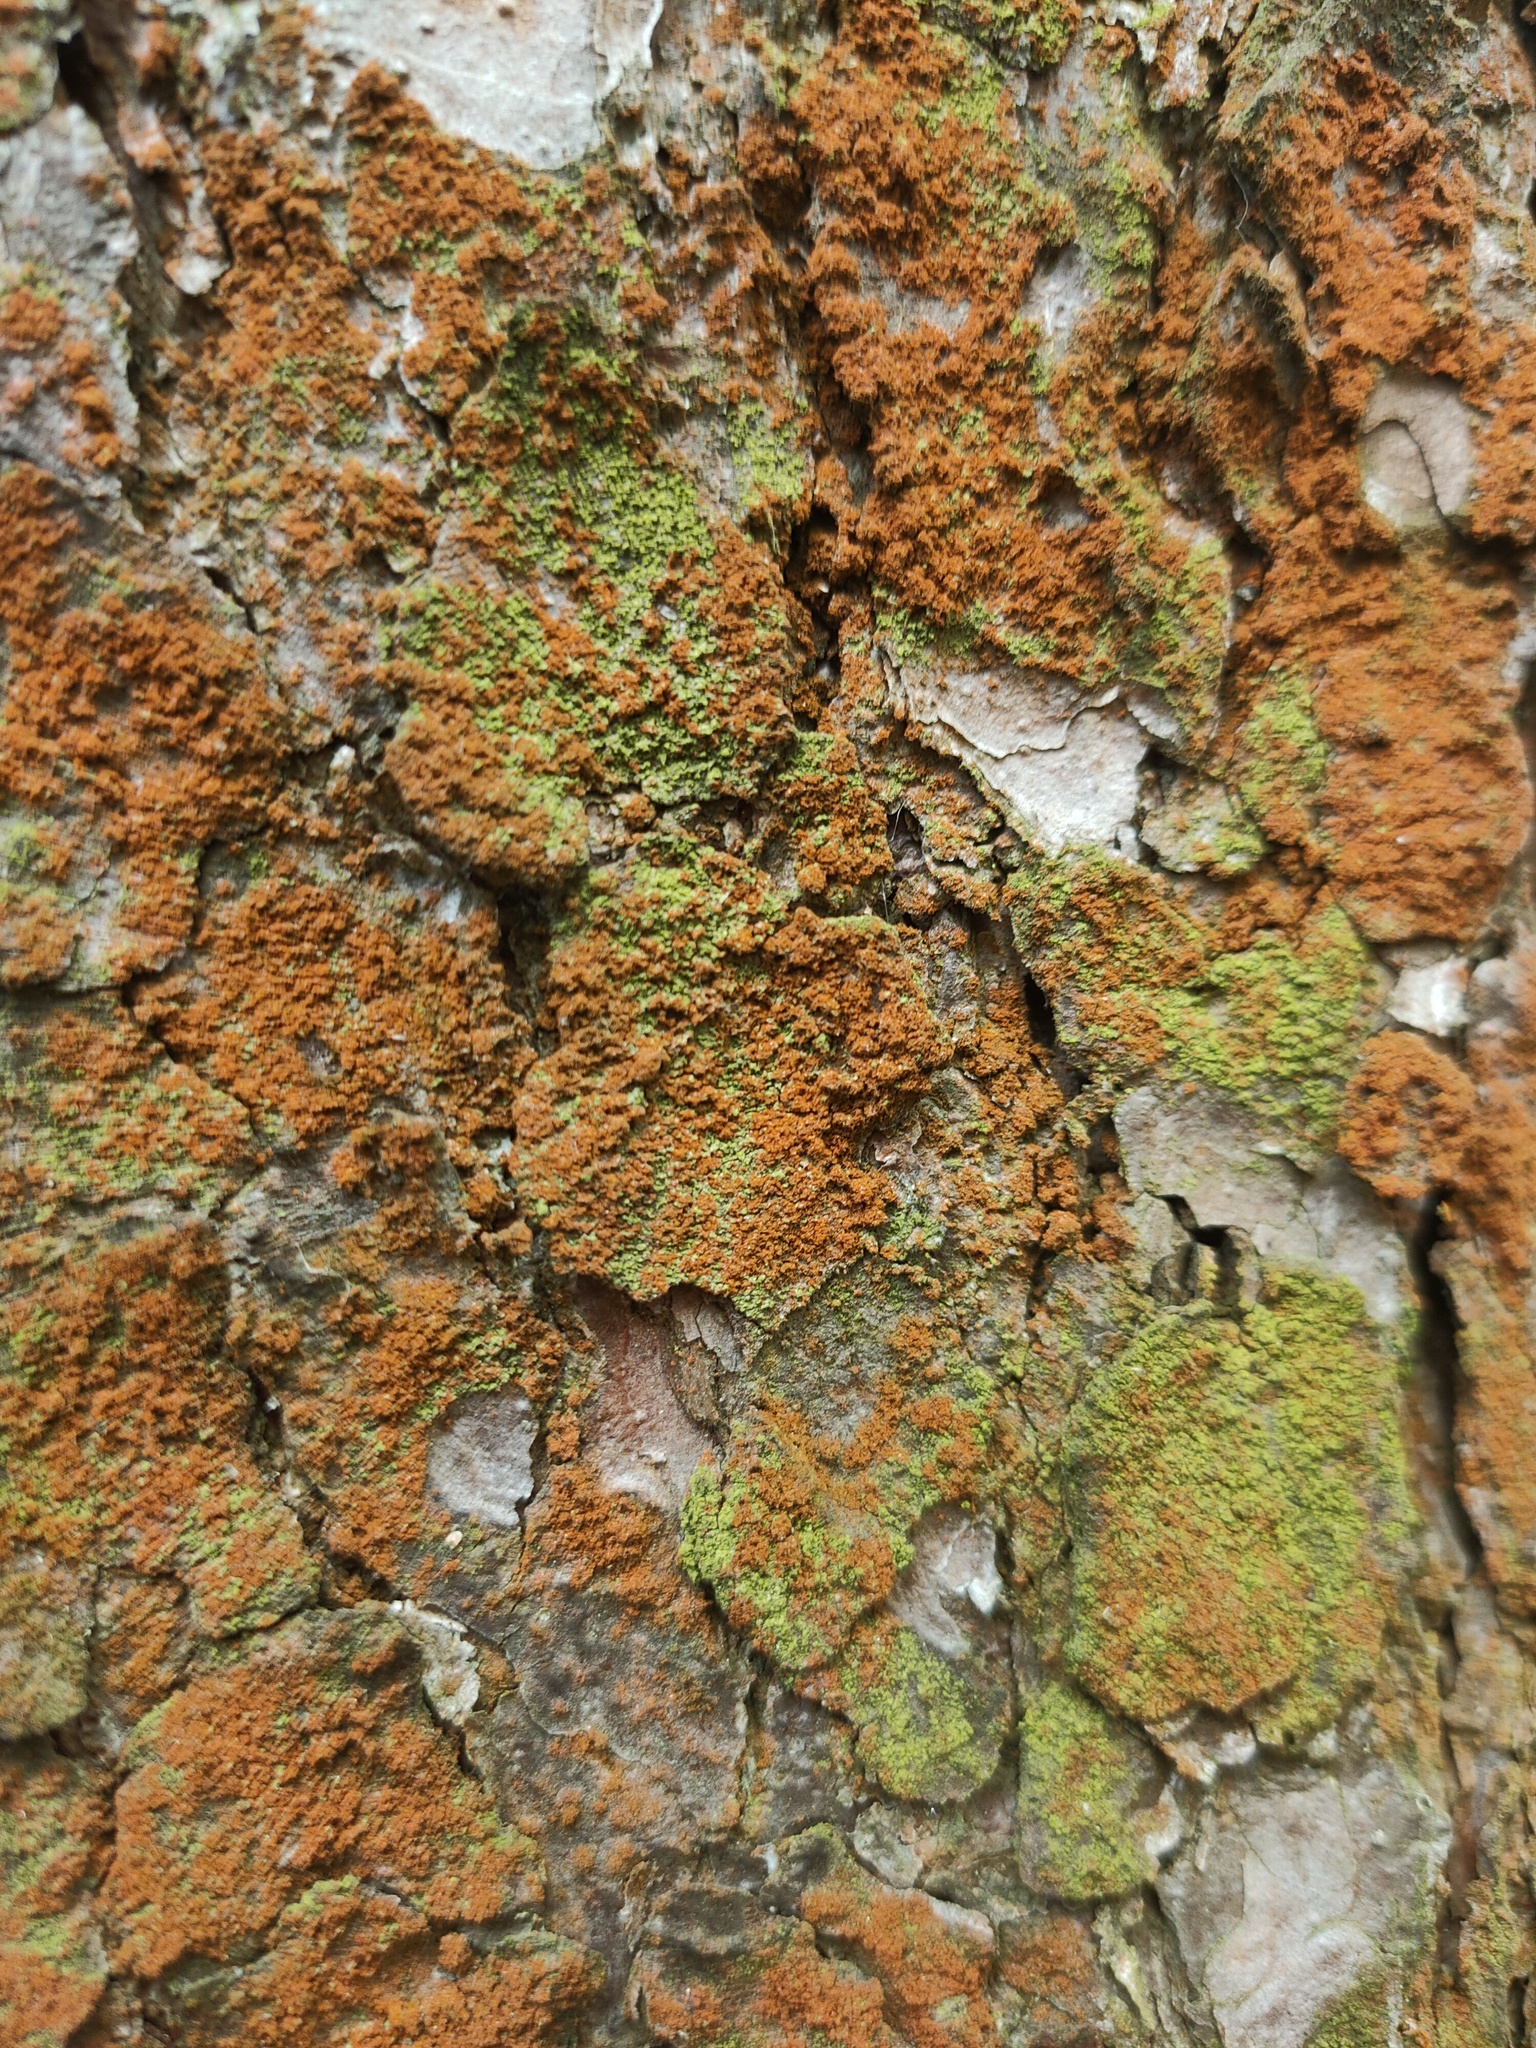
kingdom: Plantae
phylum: Chlorophyta
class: Ulvophyceae
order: Trentepohliales
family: Trentepohliaceae
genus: Trentepohlia
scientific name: Trentepohlia
